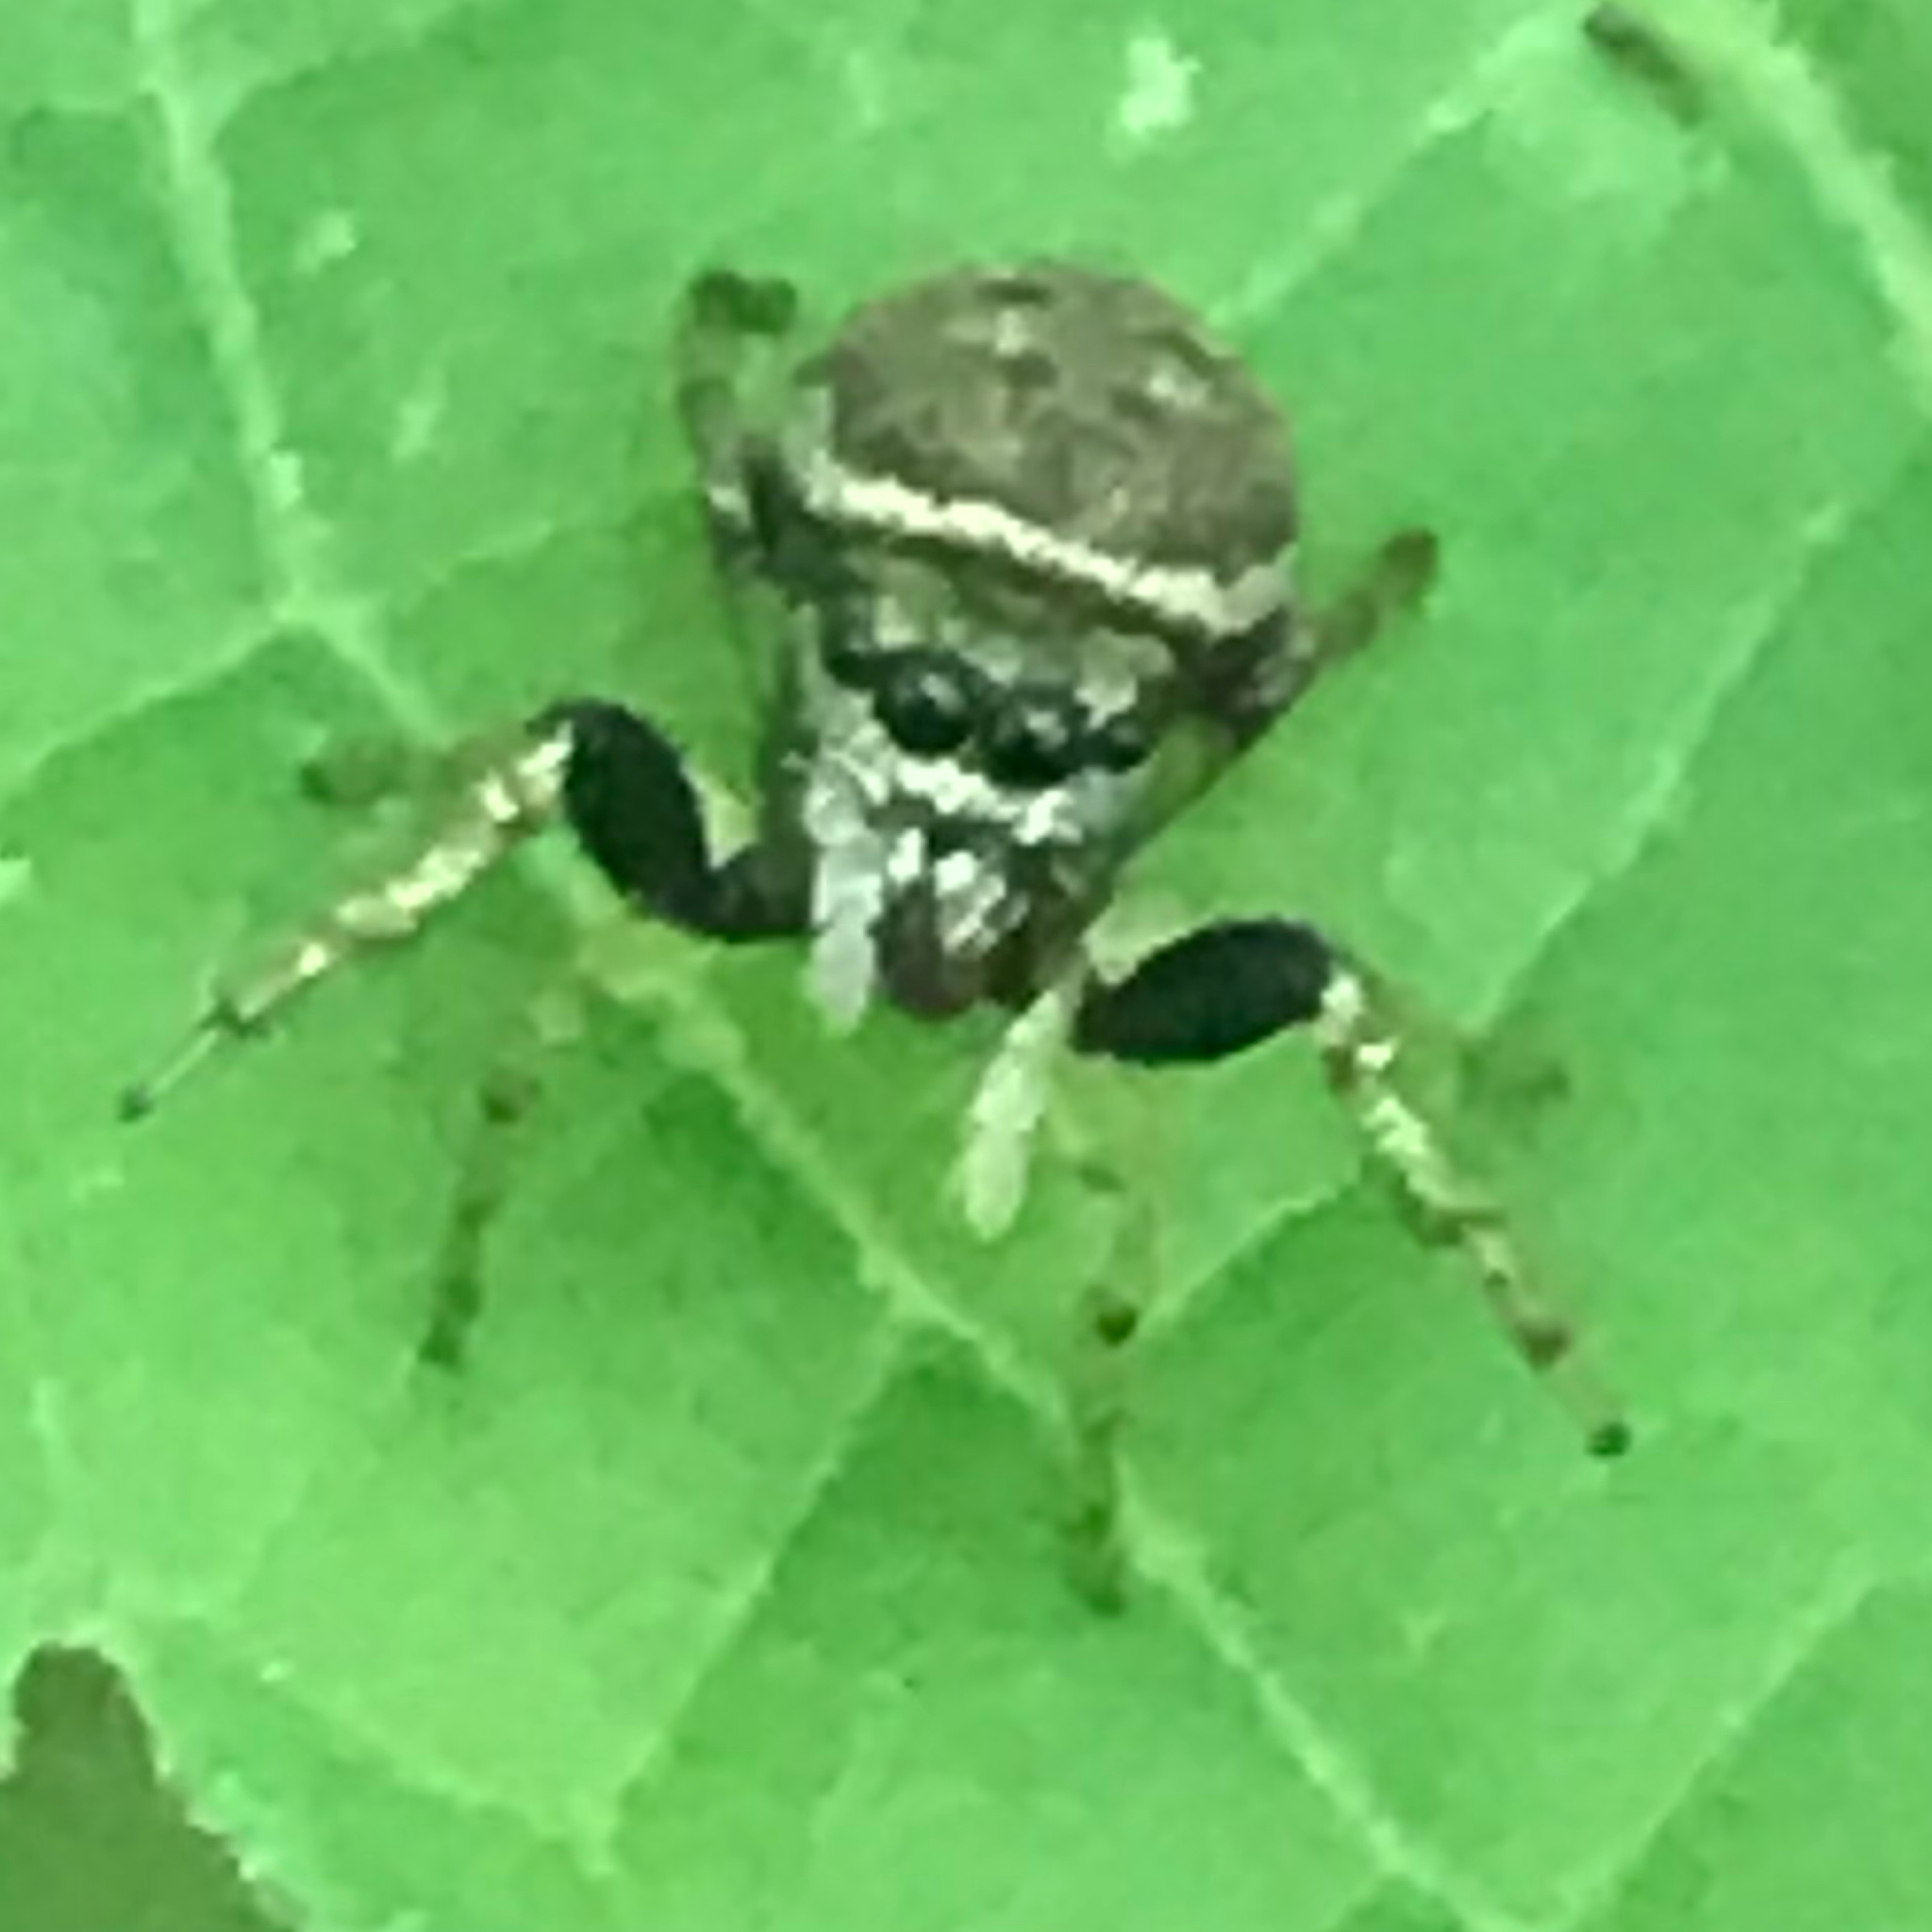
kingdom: Animalia
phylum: Arthropoda
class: Arachnida
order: Araneae
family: Salticidae
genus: Zygoballus
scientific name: Zygoballus rufipes
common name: Jumping spiders
